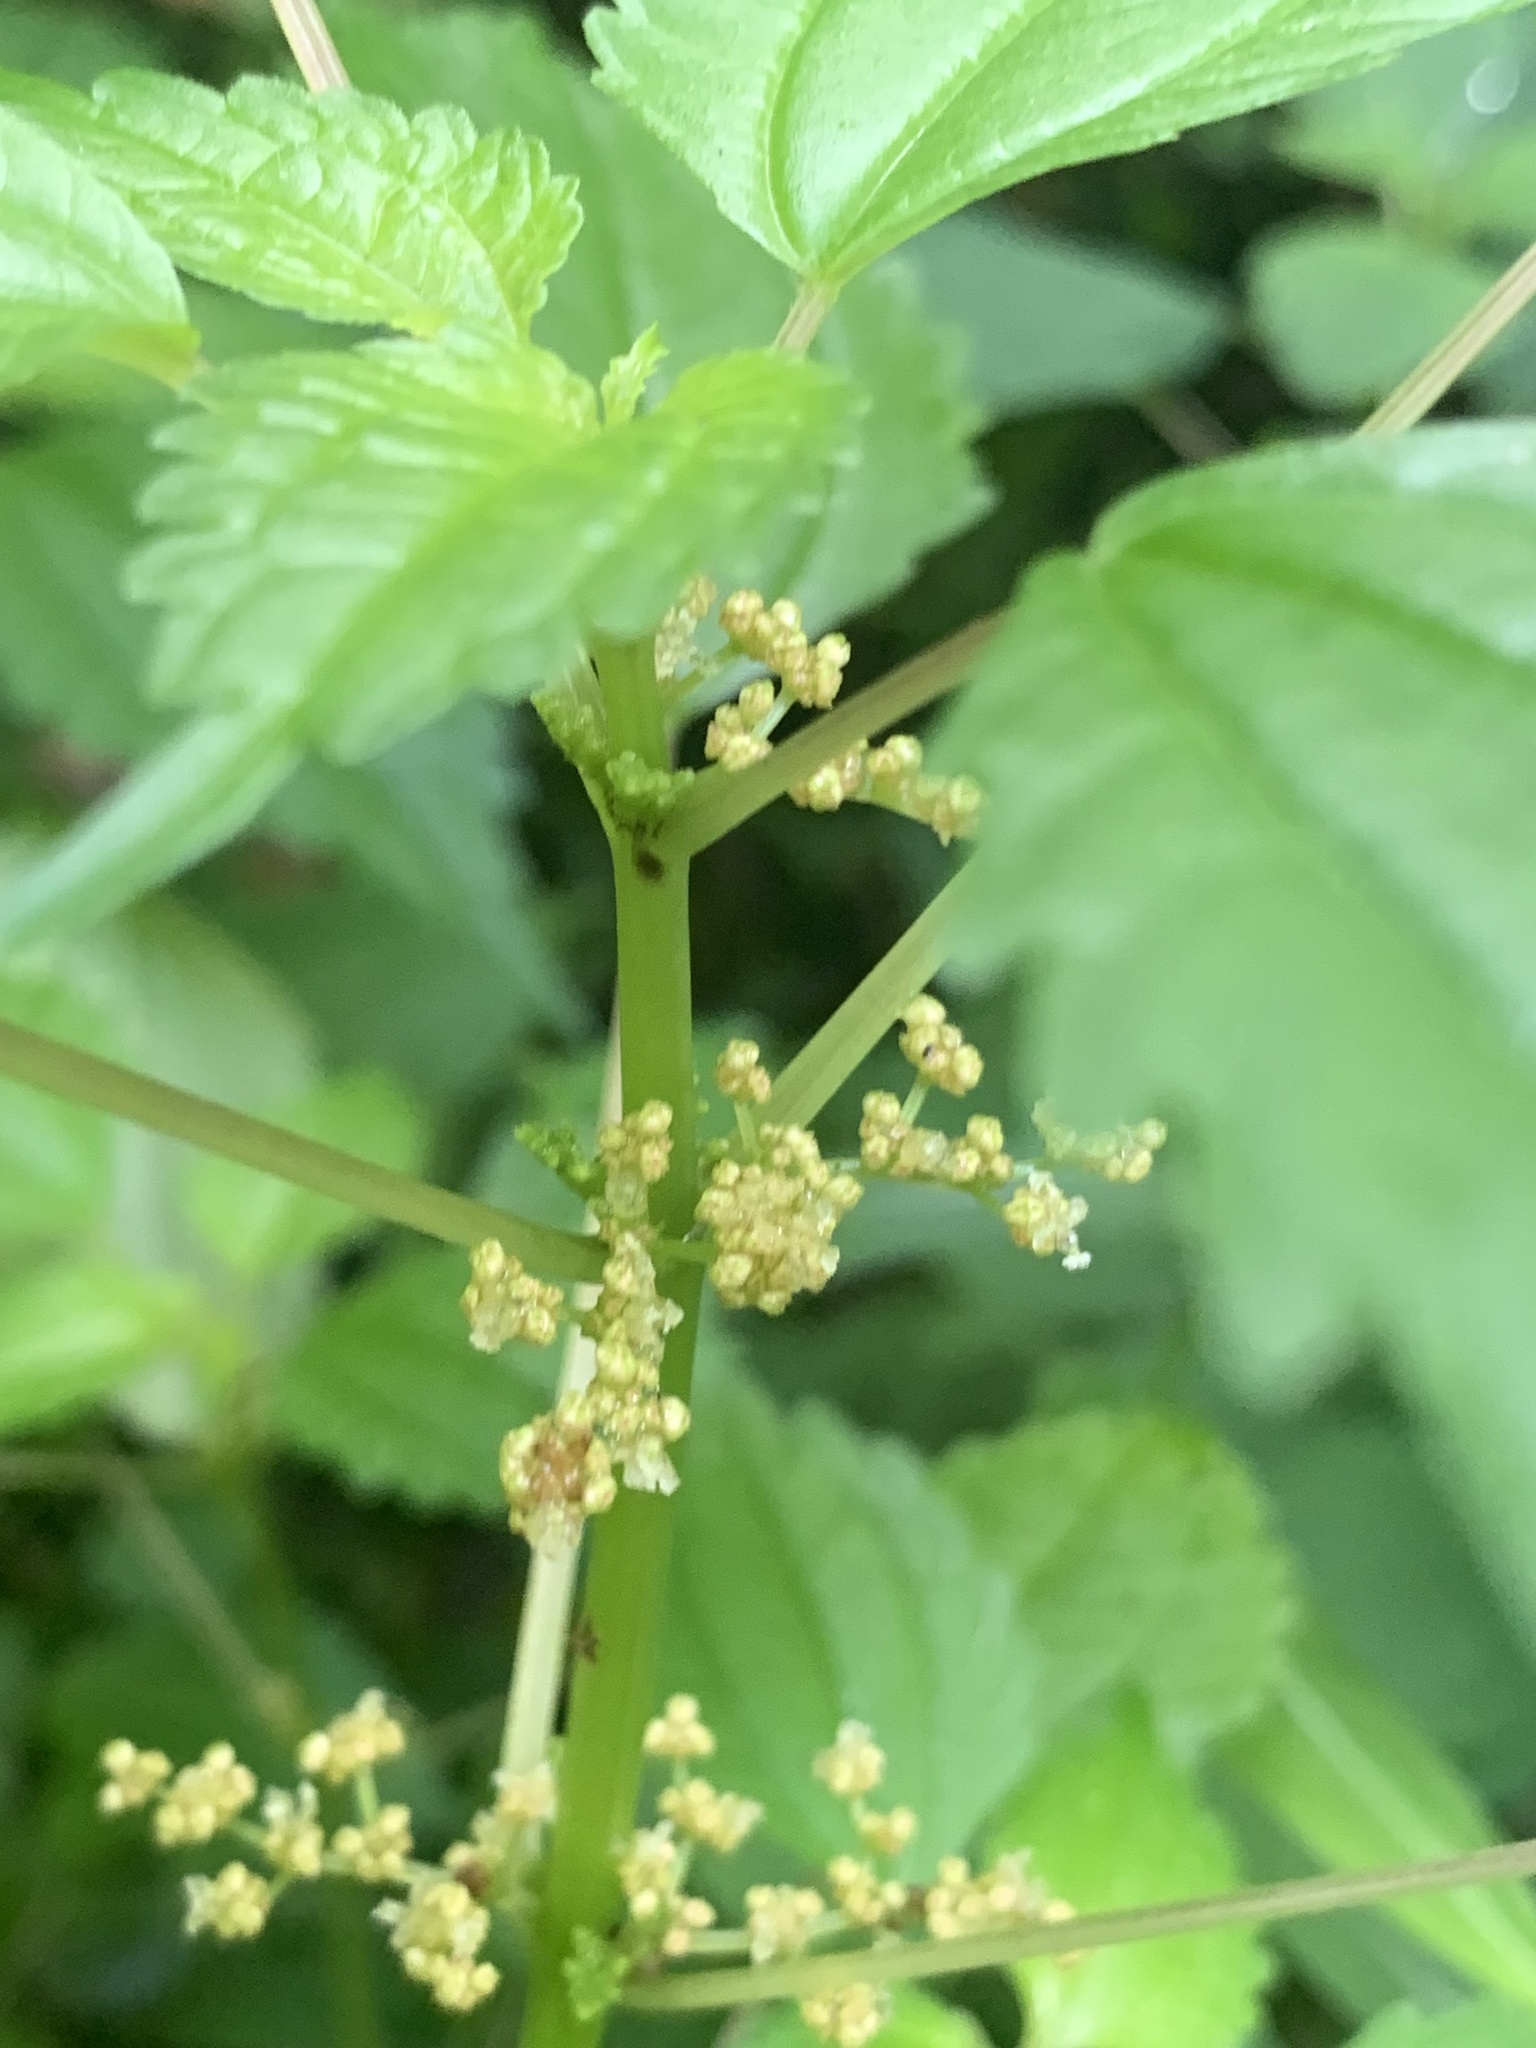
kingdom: Plantae
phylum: Tracheophyta
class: Magnoliopsida
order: Rosales
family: Urticaceae
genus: Pilea
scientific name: Pilea pumila
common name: Clearweed
